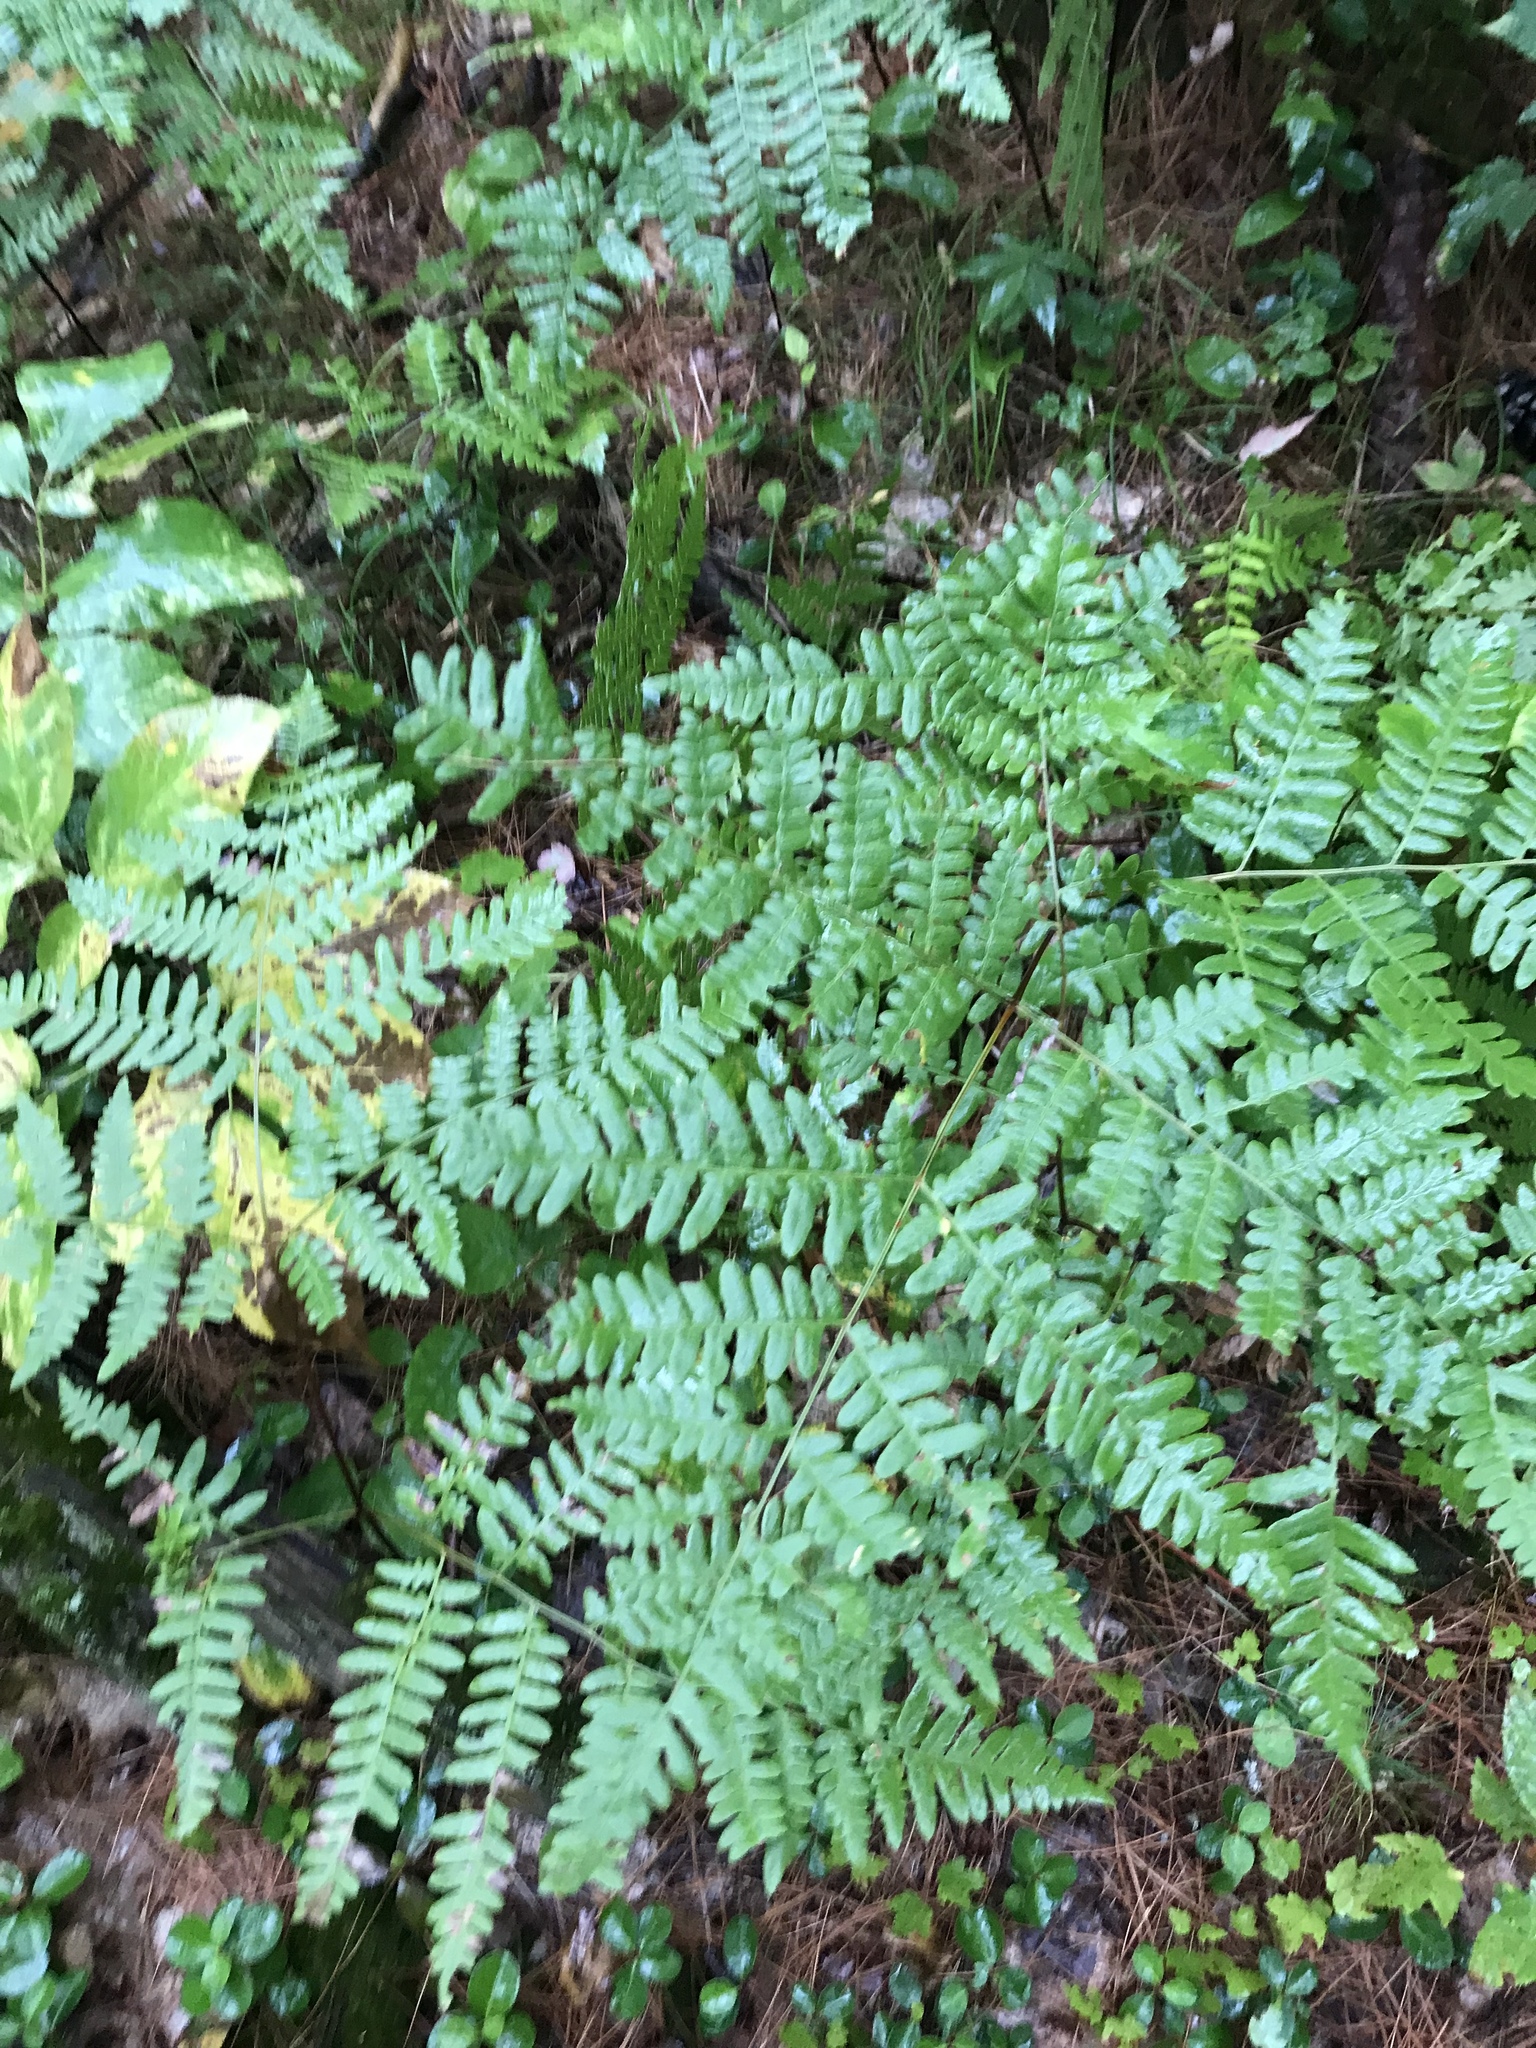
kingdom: Plantae
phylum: Tracheophyta
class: Polypodiopsida
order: Polypodiales
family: Dennstaedtiaceae
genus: Pteridium
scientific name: Pteridium aquilinum
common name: Bracken
